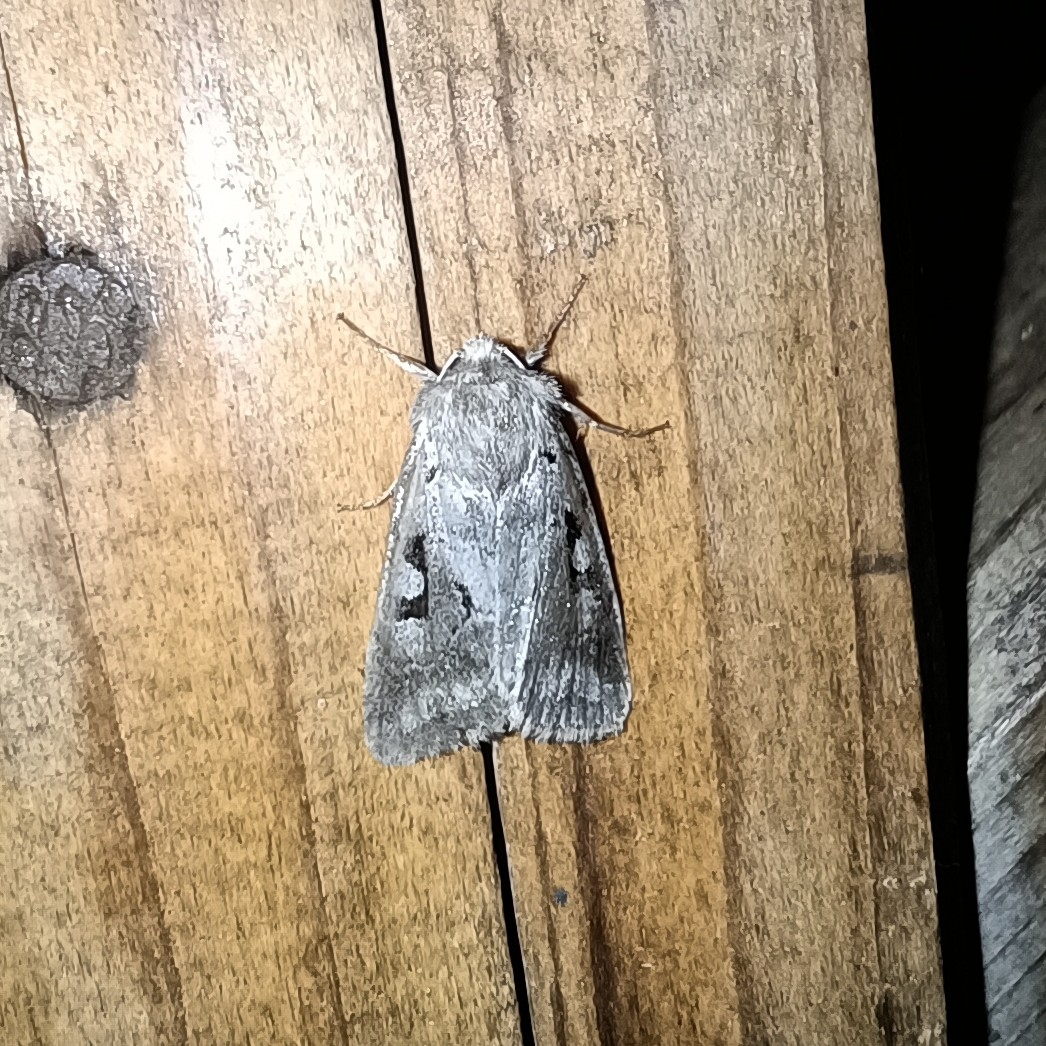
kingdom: Animalia
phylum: Arthropoda
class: Insecta
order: Lepidoptera
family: Noctuidae
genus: Orthosia
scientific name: Orthosia gothica
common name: Hebrew character
